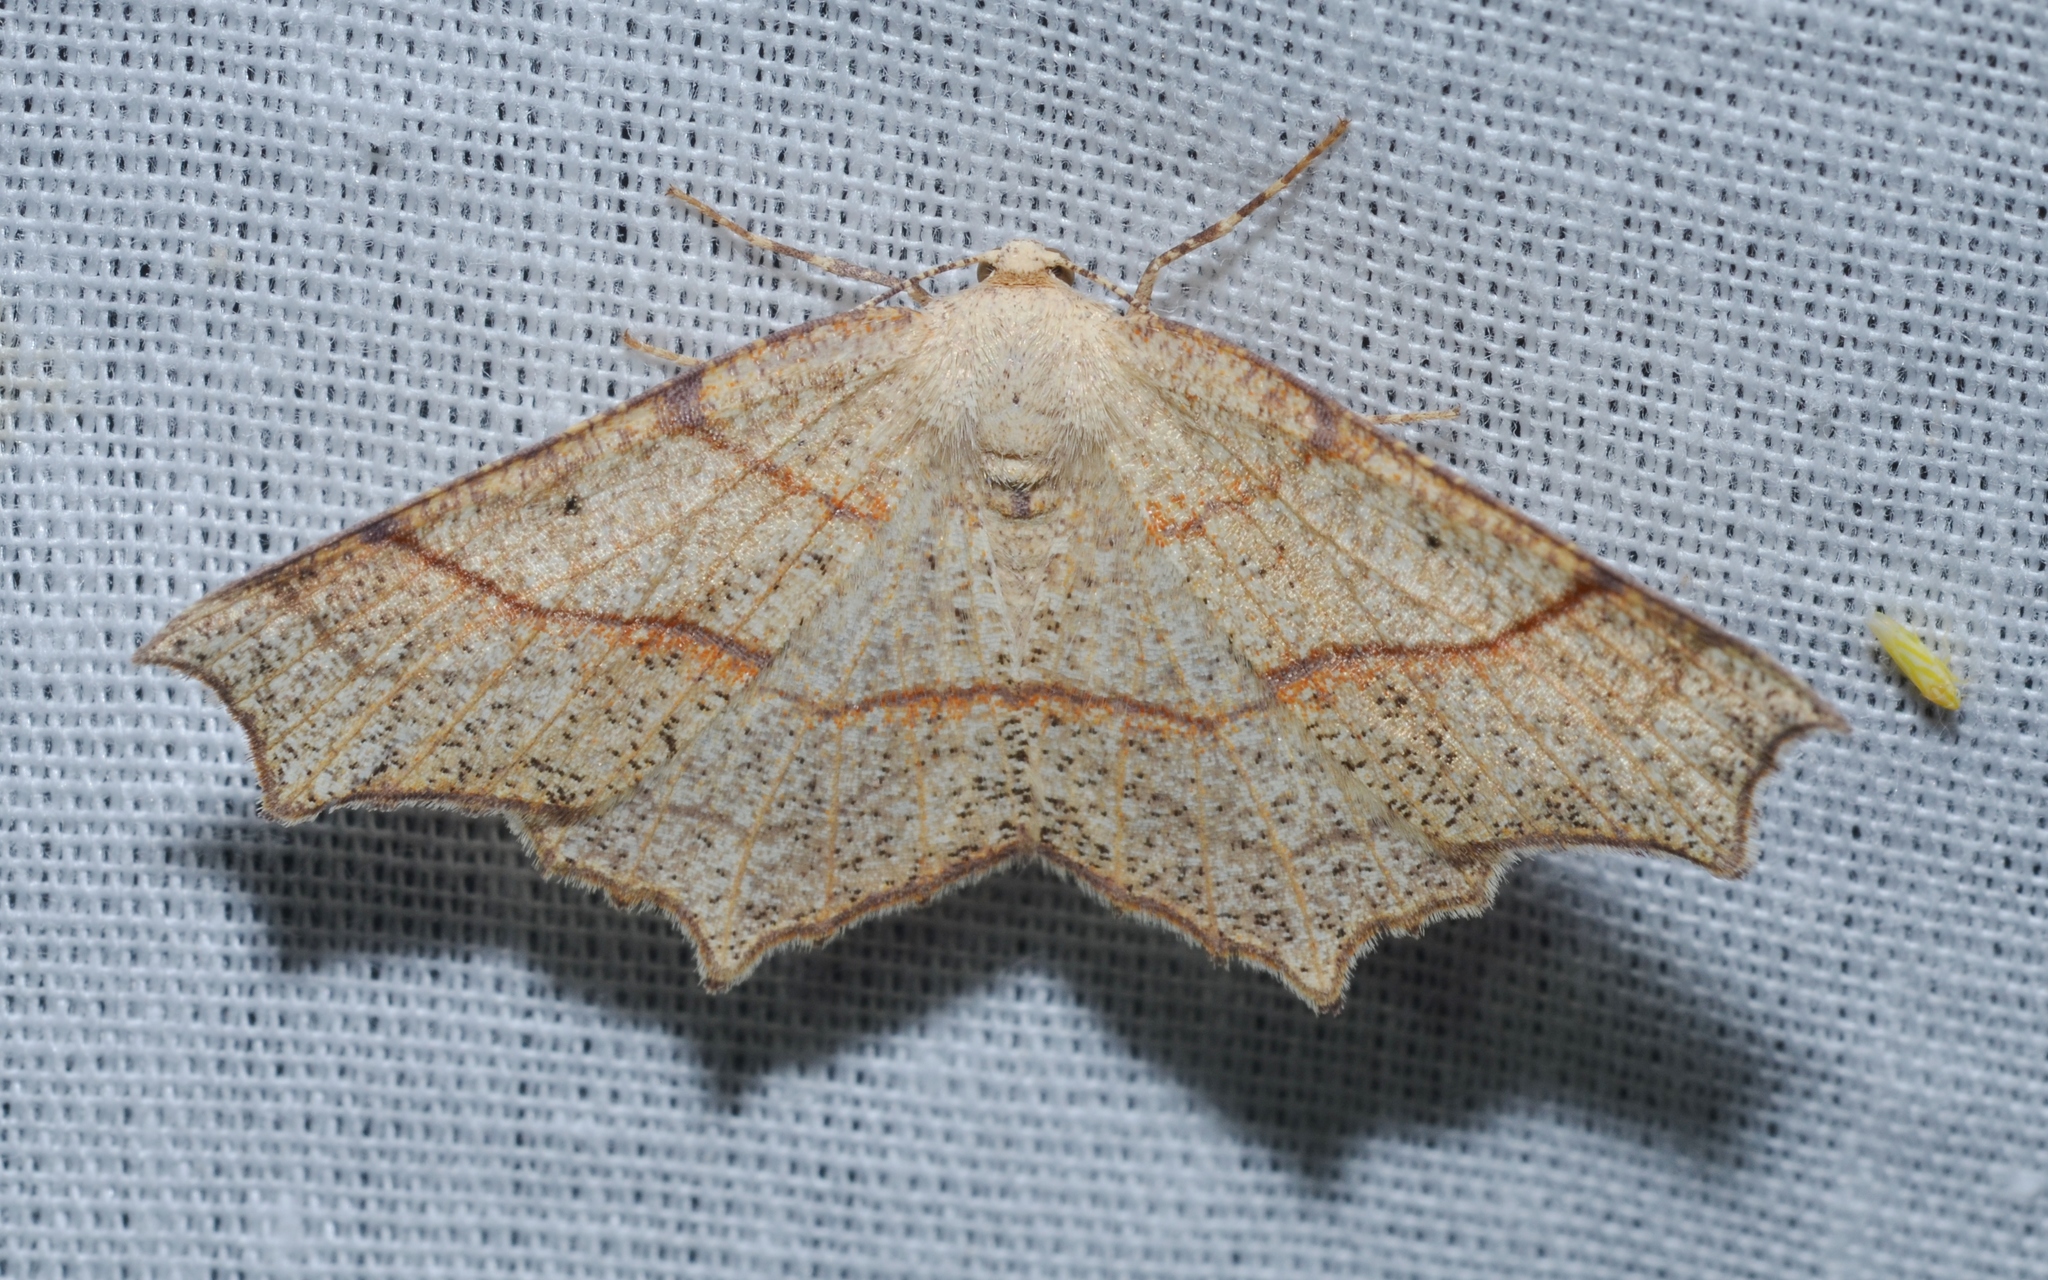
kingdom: Animalia
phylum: Arthropoda
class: Insecta
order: Lepidoptera
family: Geometridae
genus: Besma
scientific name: Besma quercivoraria
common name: Oak besma
